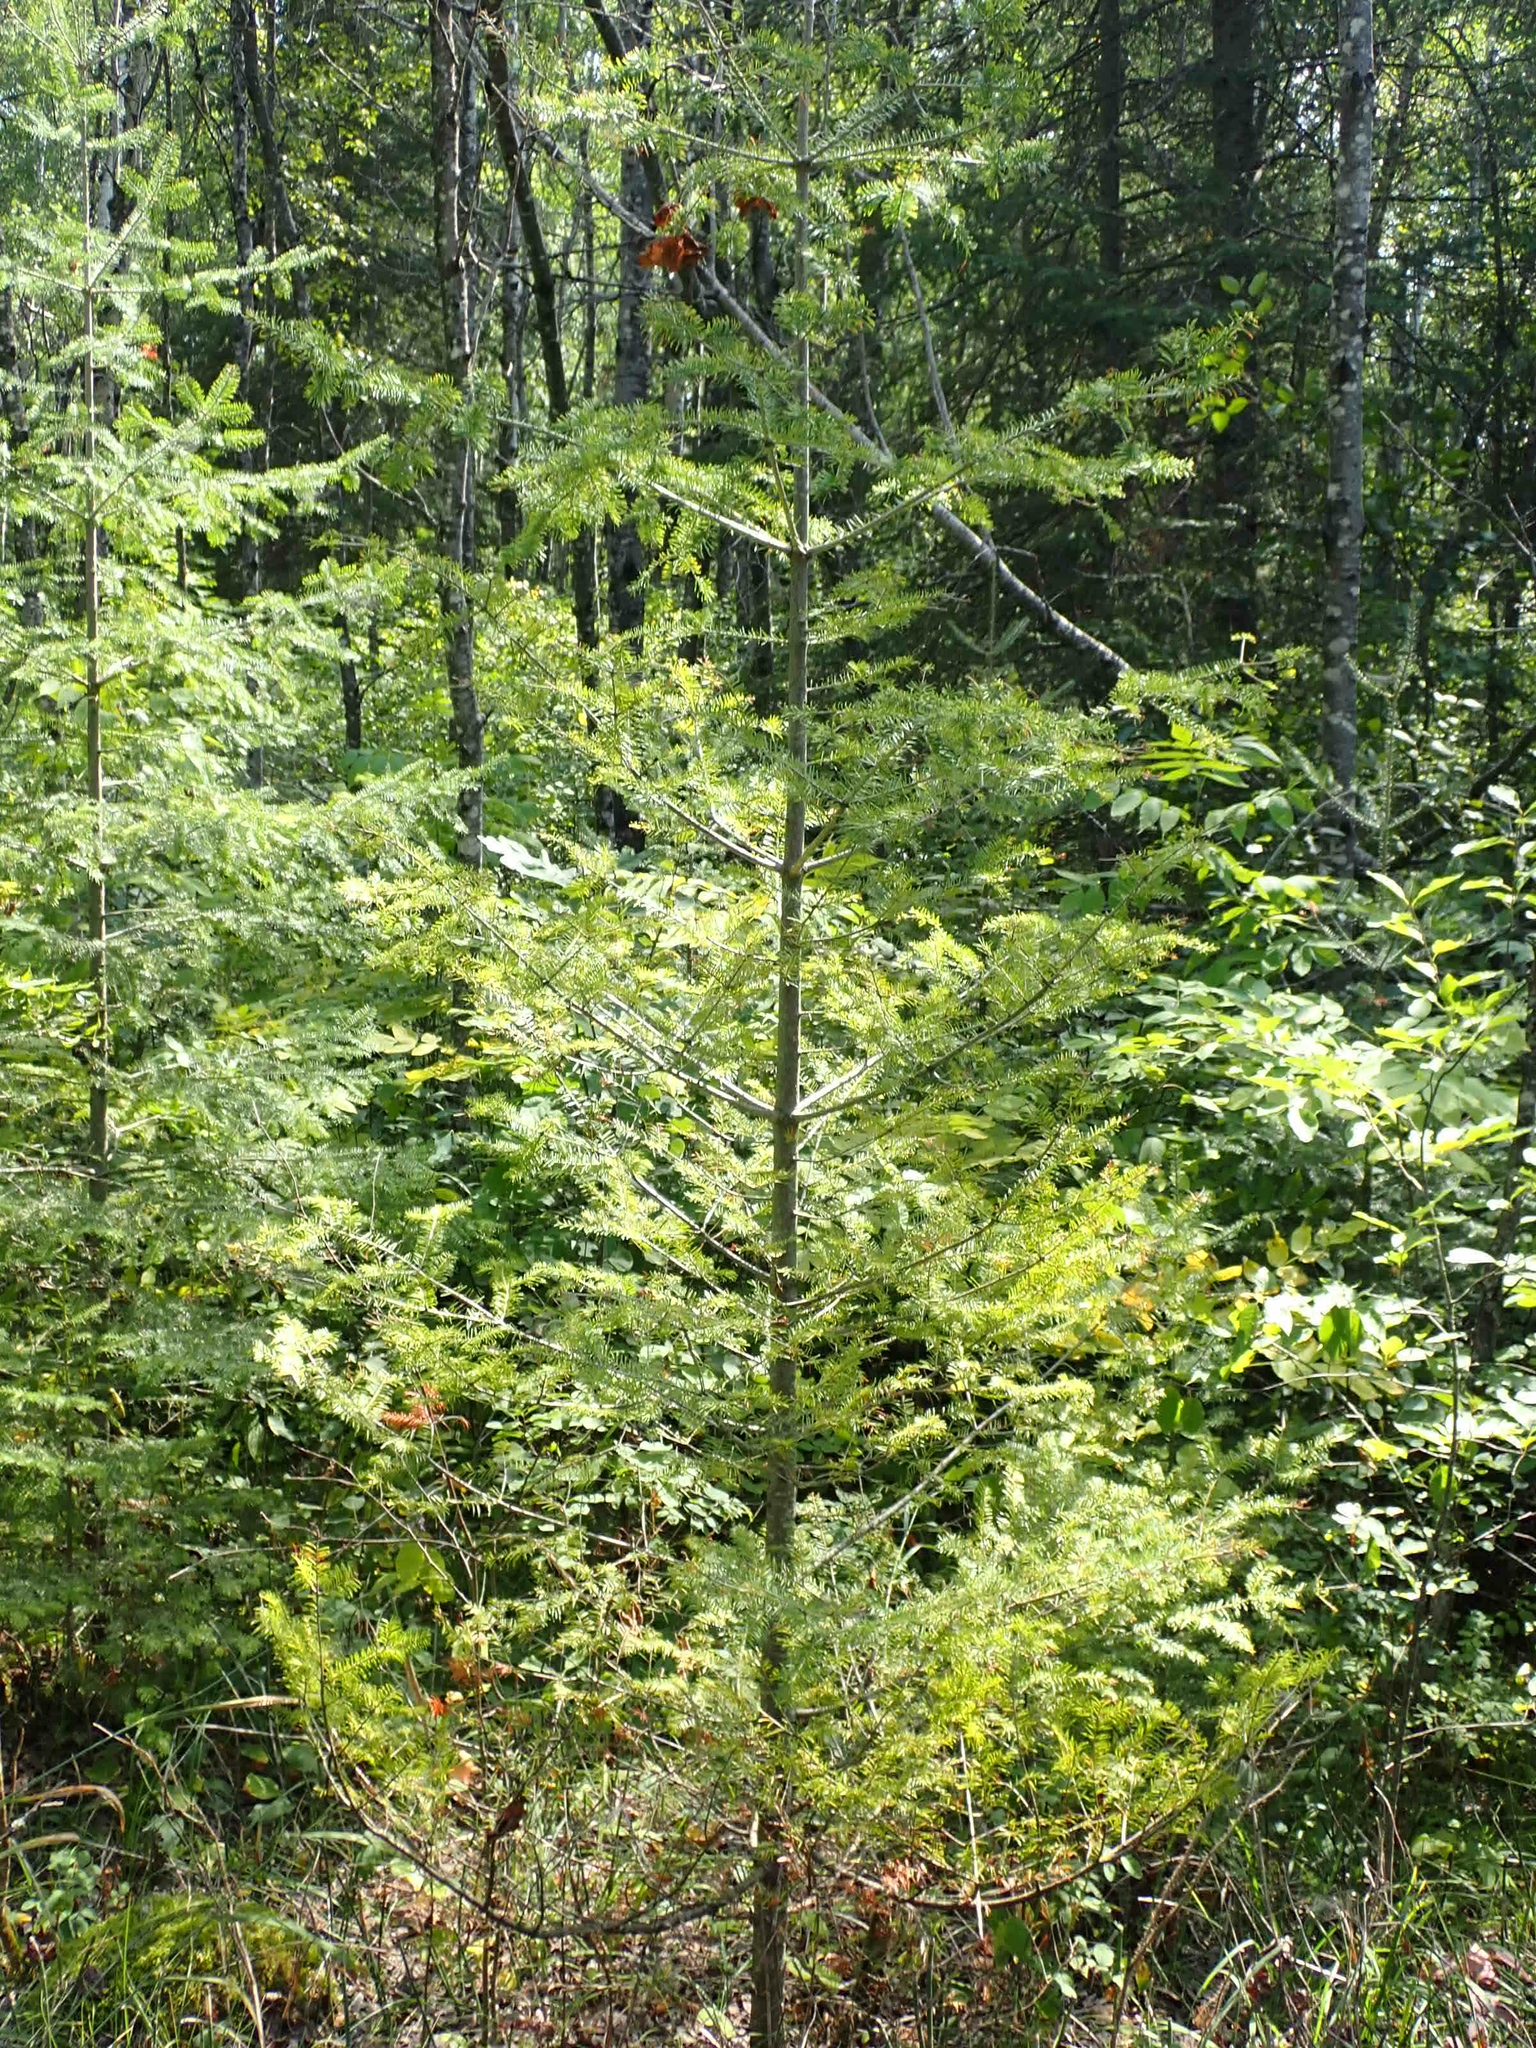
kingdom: Plantae
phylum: Tracheophyta
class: Pinopsida
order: Pinales
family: Pinaceae
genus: Abies
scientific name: Abies balsamea
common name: Balsam fir
